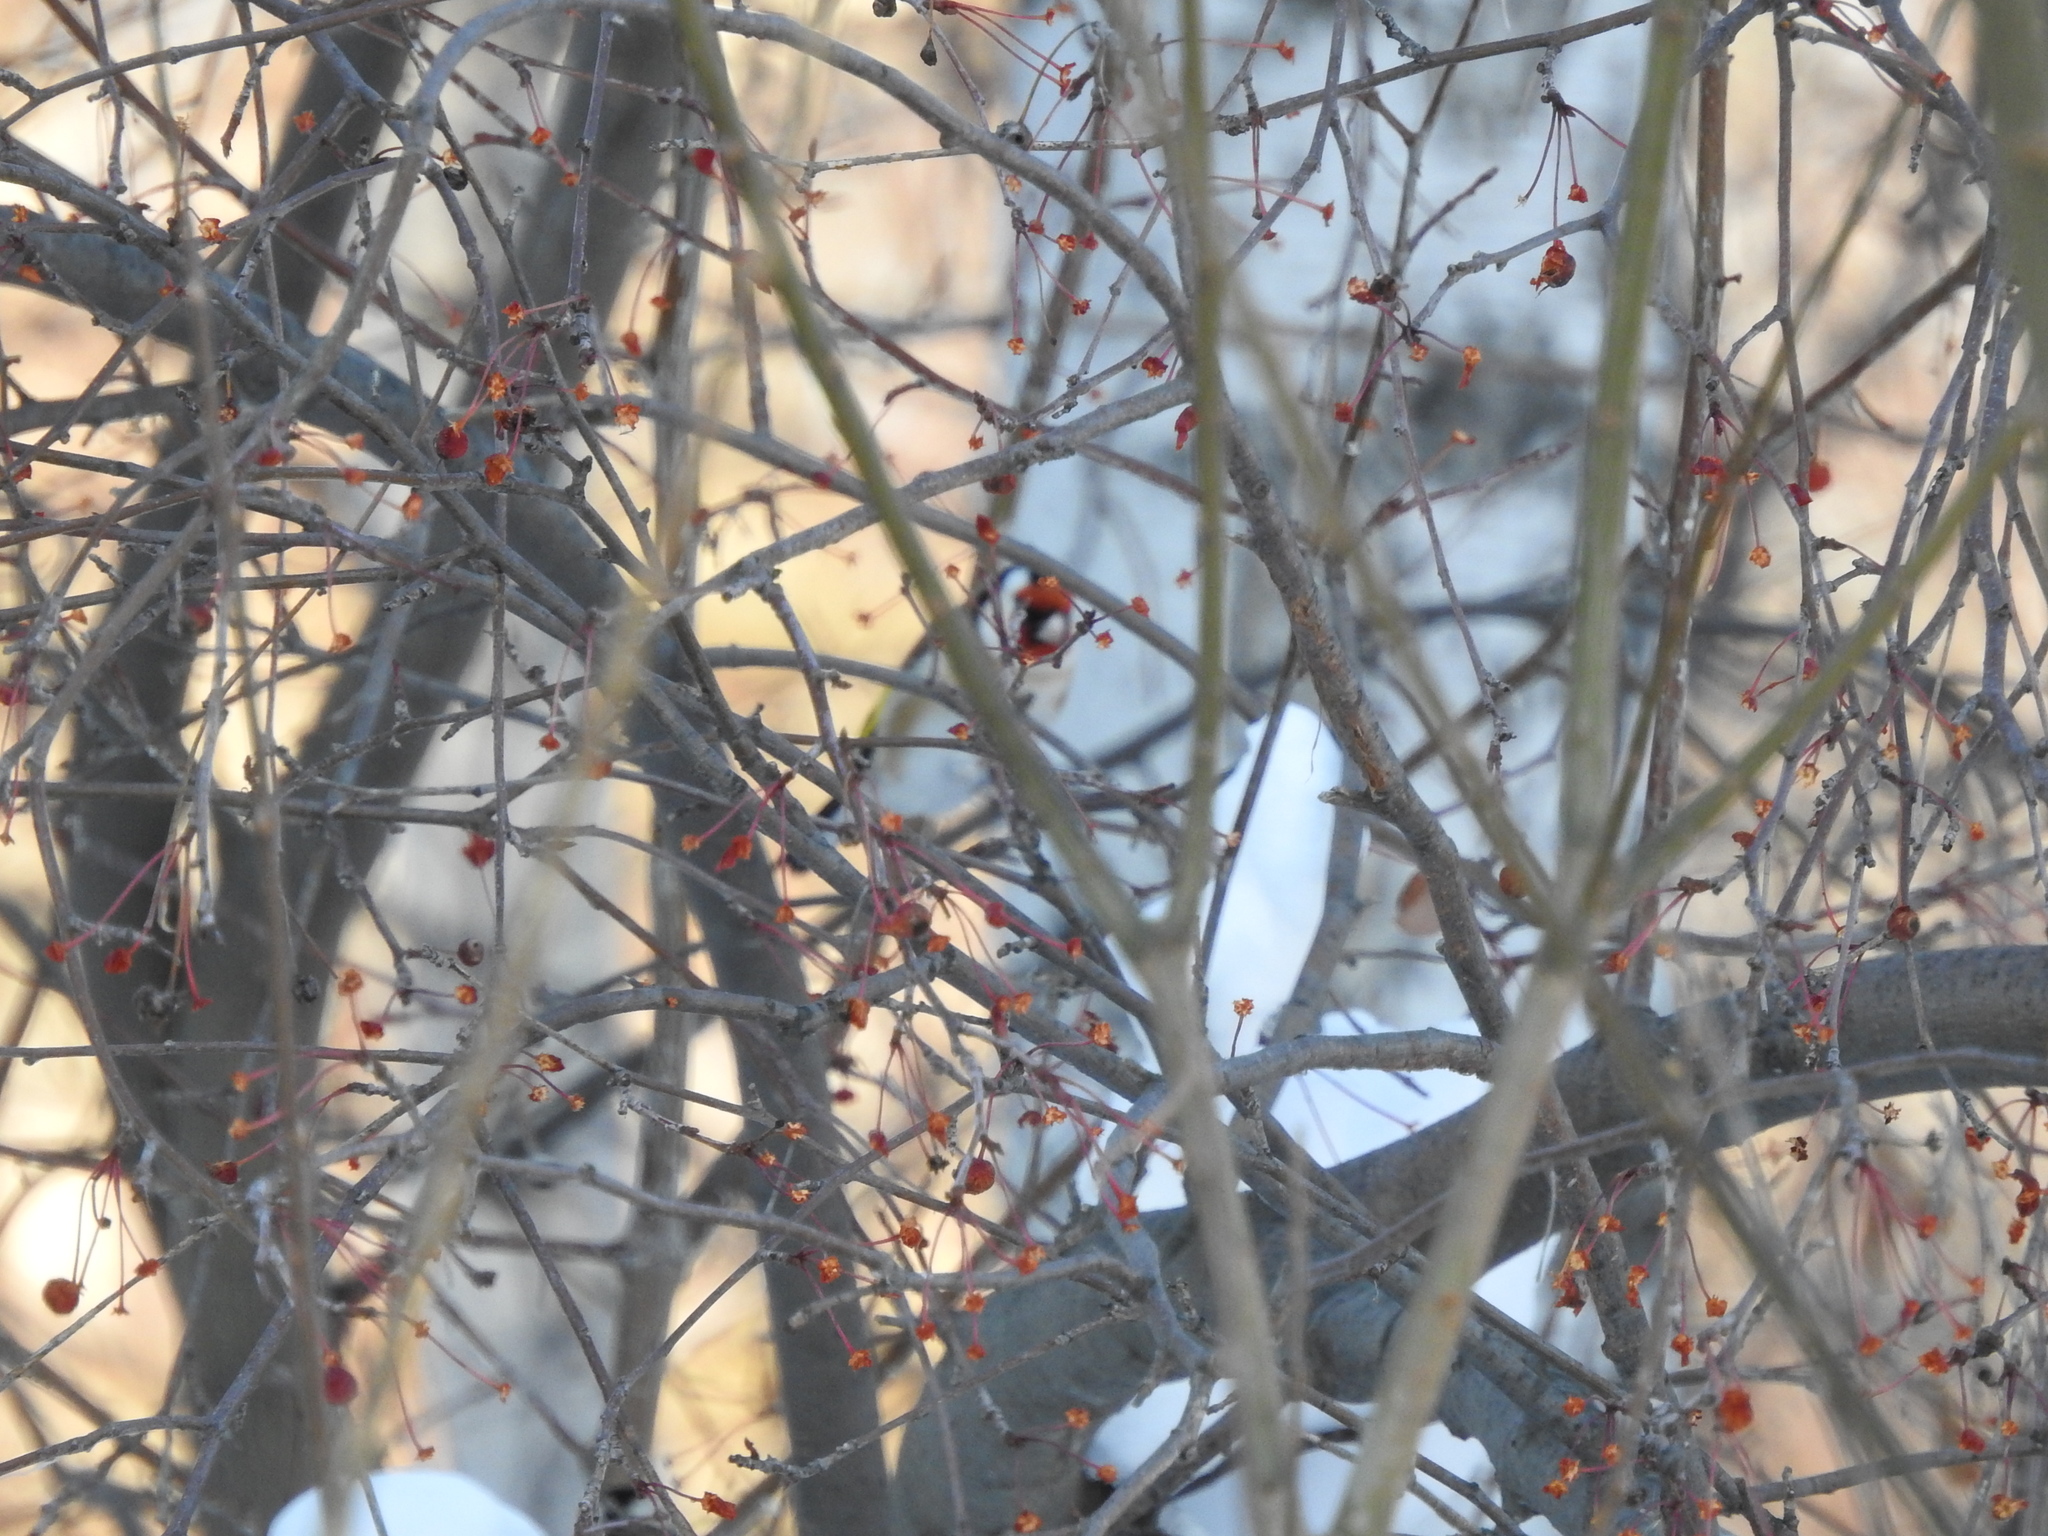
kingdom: Animalia
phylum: Chordata
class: Aves
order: Passeriformes
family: Fringillidae
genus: Carduelis
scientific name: Carduelis carduelis
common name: European goldfinch
